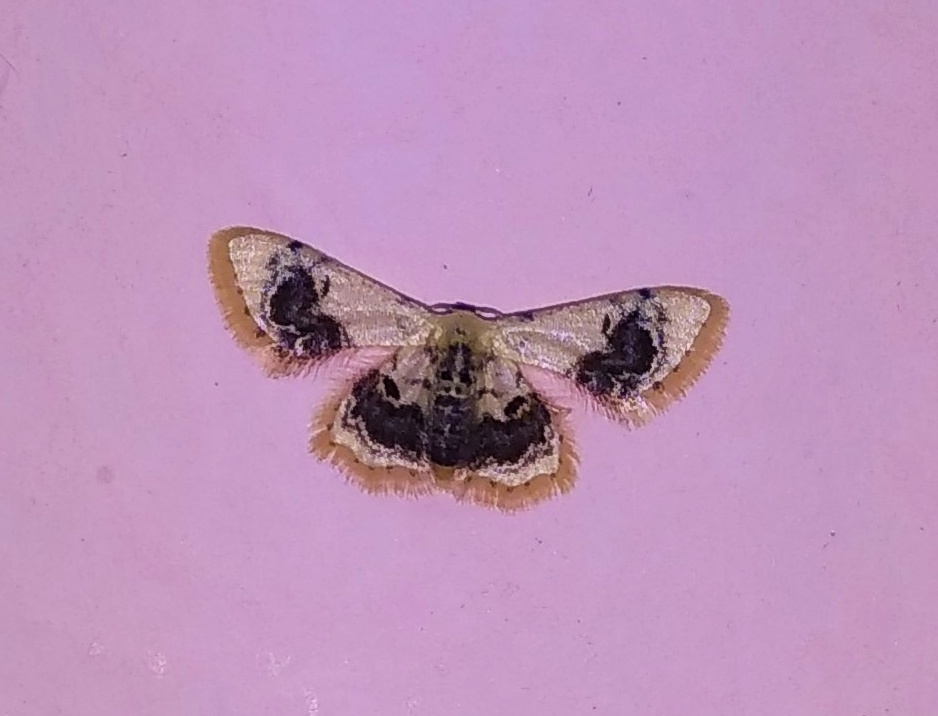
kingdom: Animalia
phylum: Arthropoda
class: Insecta
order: Lepidoptera
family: Geometridae
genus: Idaea
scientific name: Idaea macrospila
